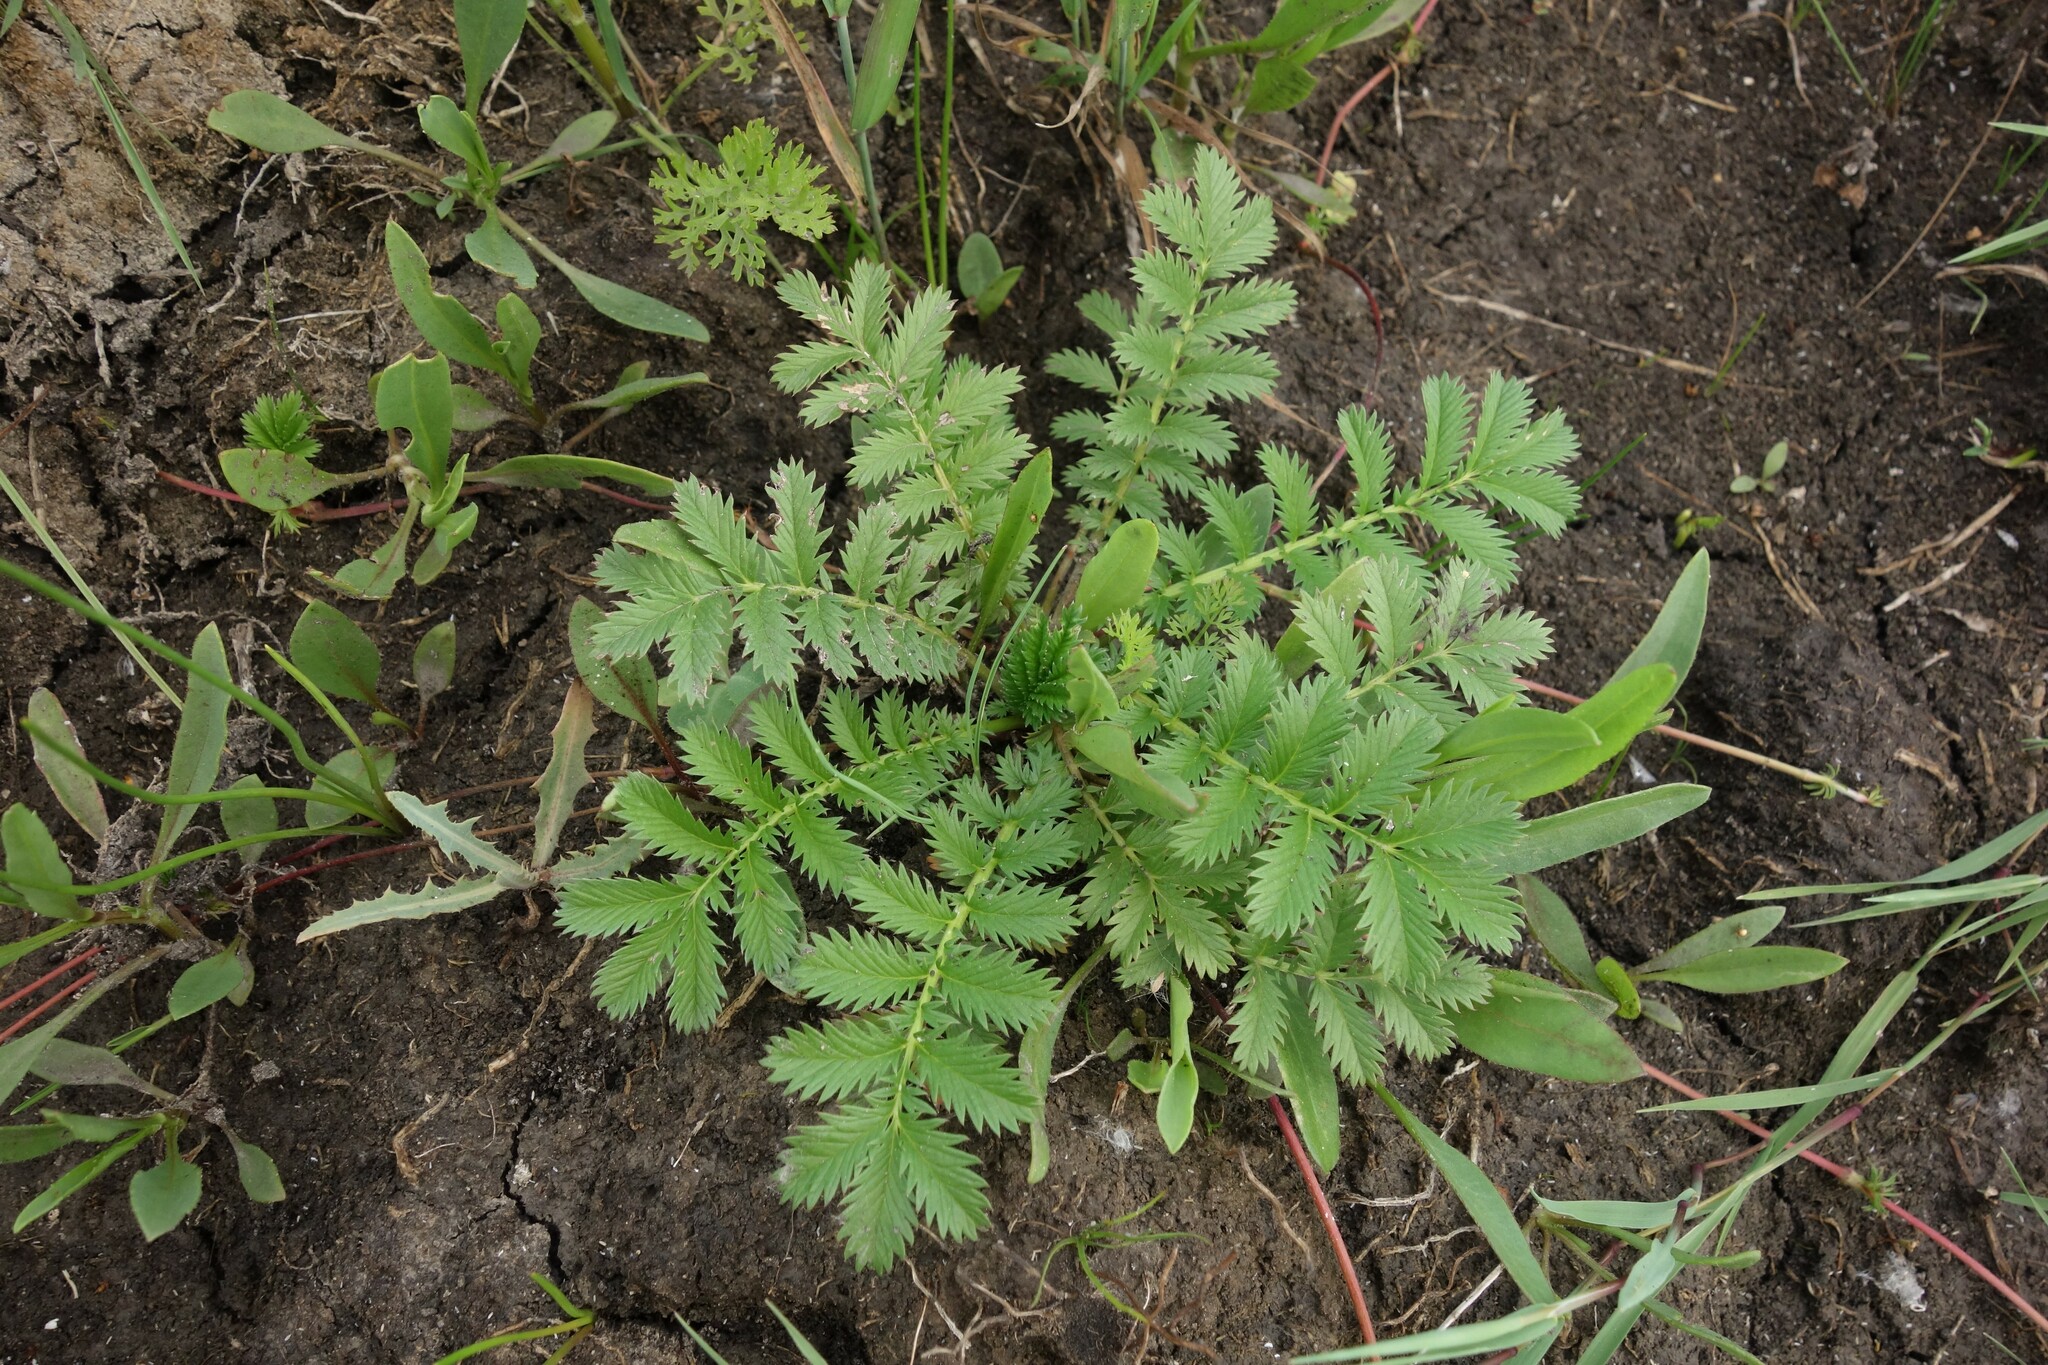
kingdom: Plantae
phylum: Tracheophyta
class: Magnoliopsida
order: Rosales
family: Rosaceae
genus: Argentina
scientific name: Argentina anserina
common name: Common silverweed
